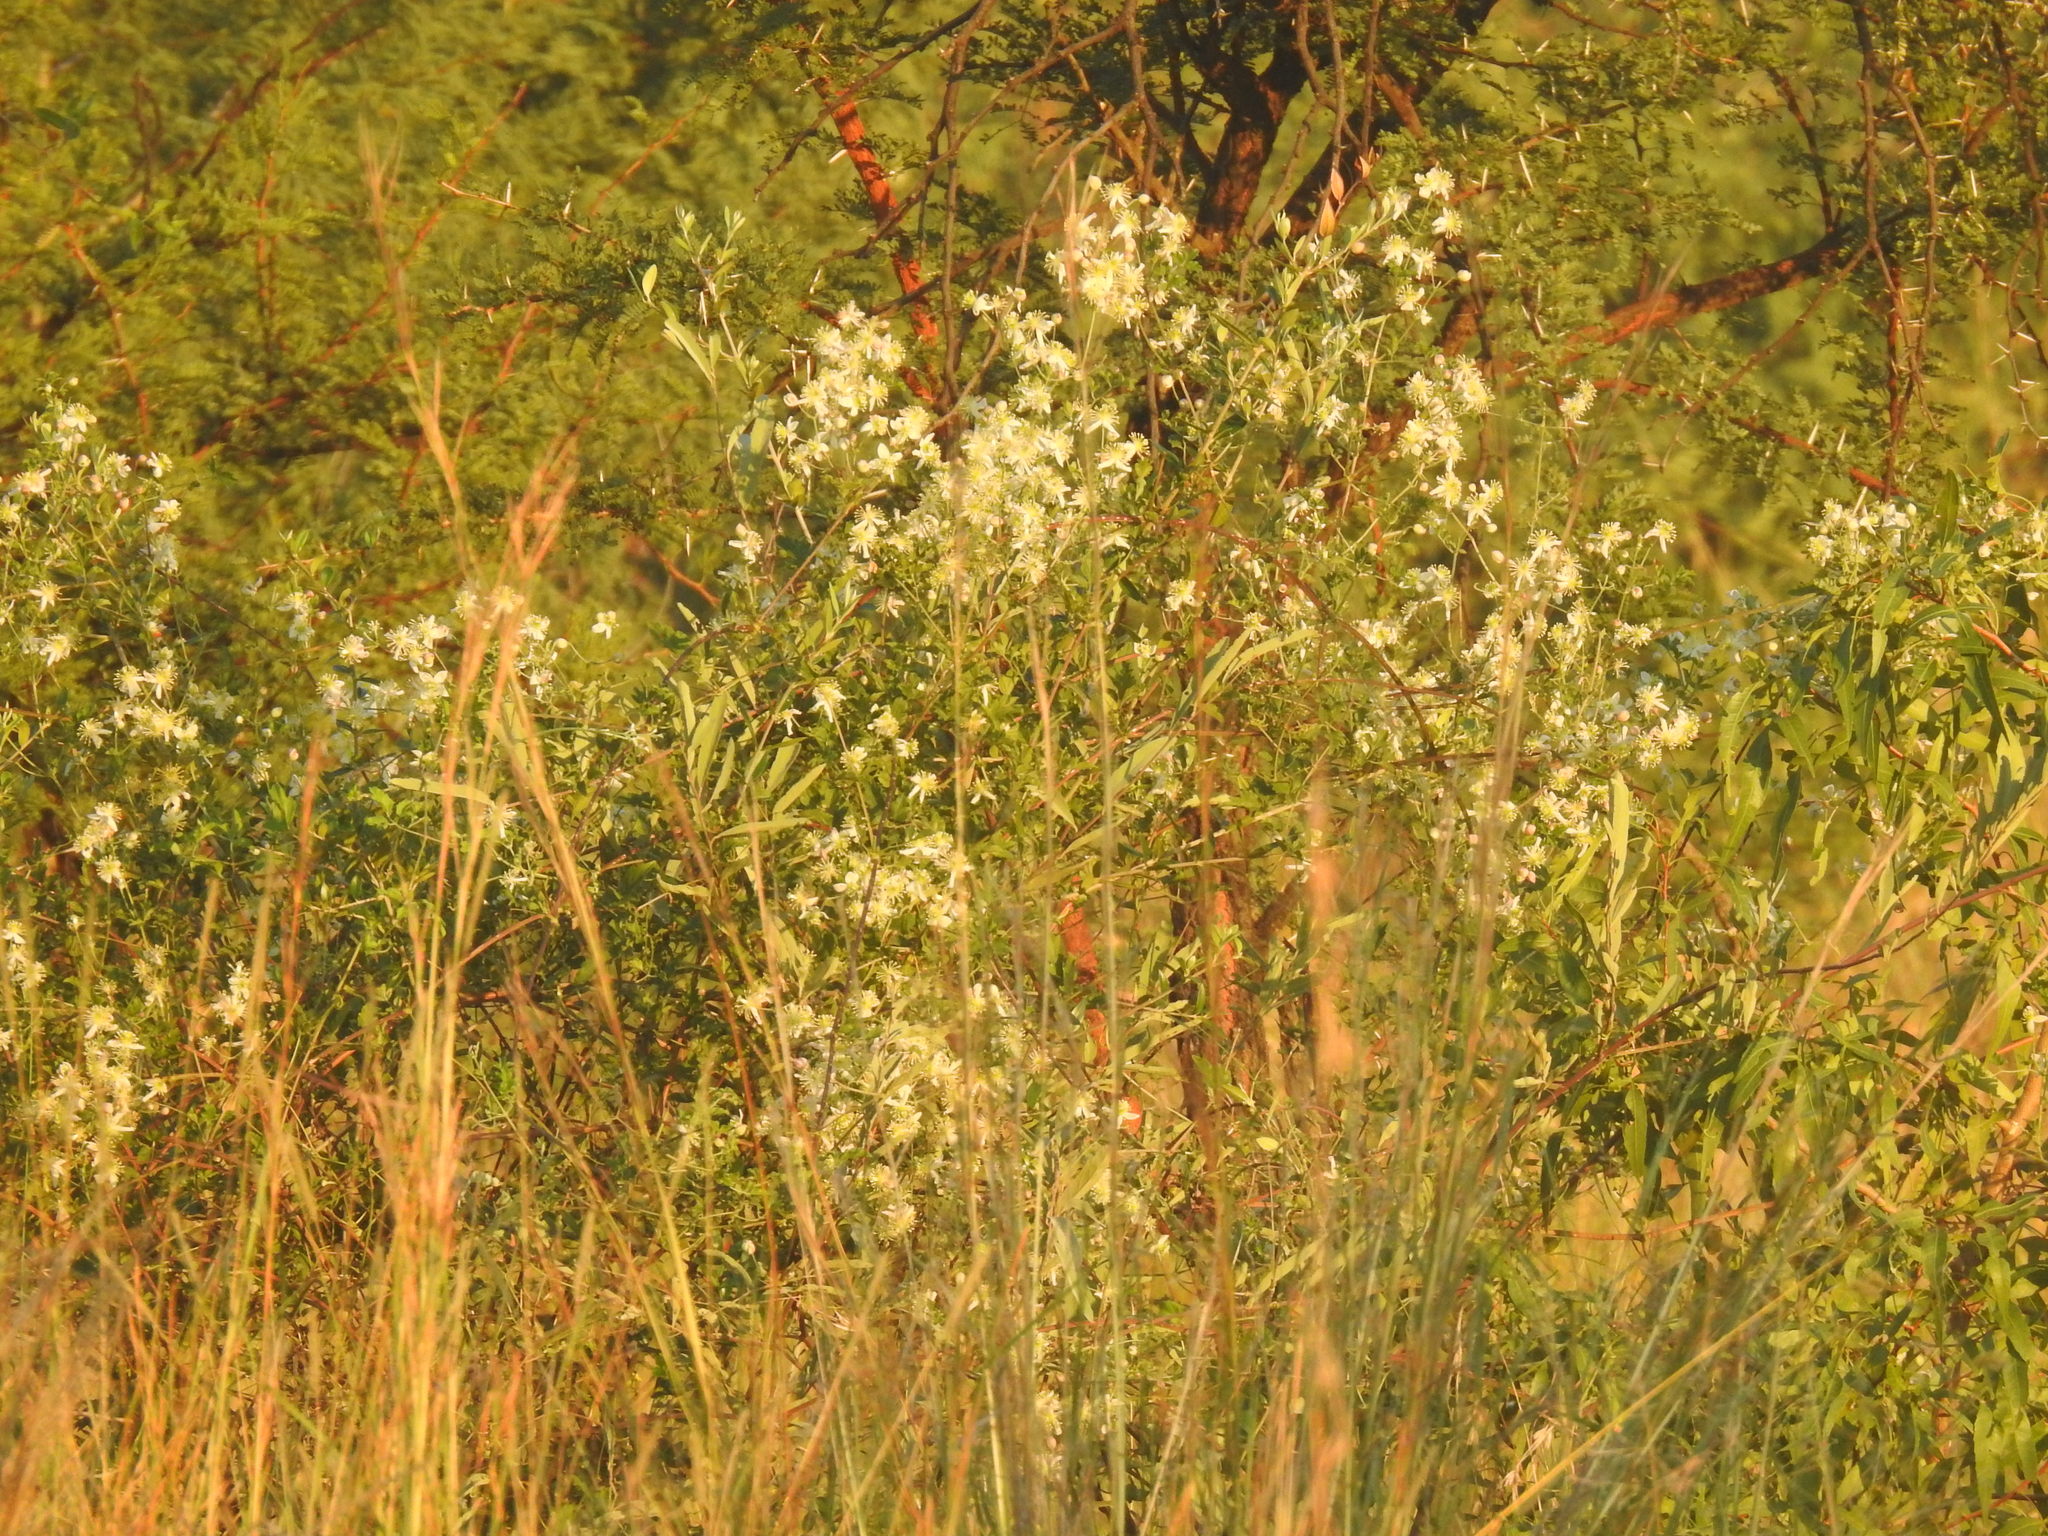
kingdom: Plantae
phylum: Tracheophyta
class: Magnoliopsida
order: Ranunculales
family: Ranunculaceae
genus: Clematis
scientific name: Clematis brachiata
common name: Traveler's-joy
